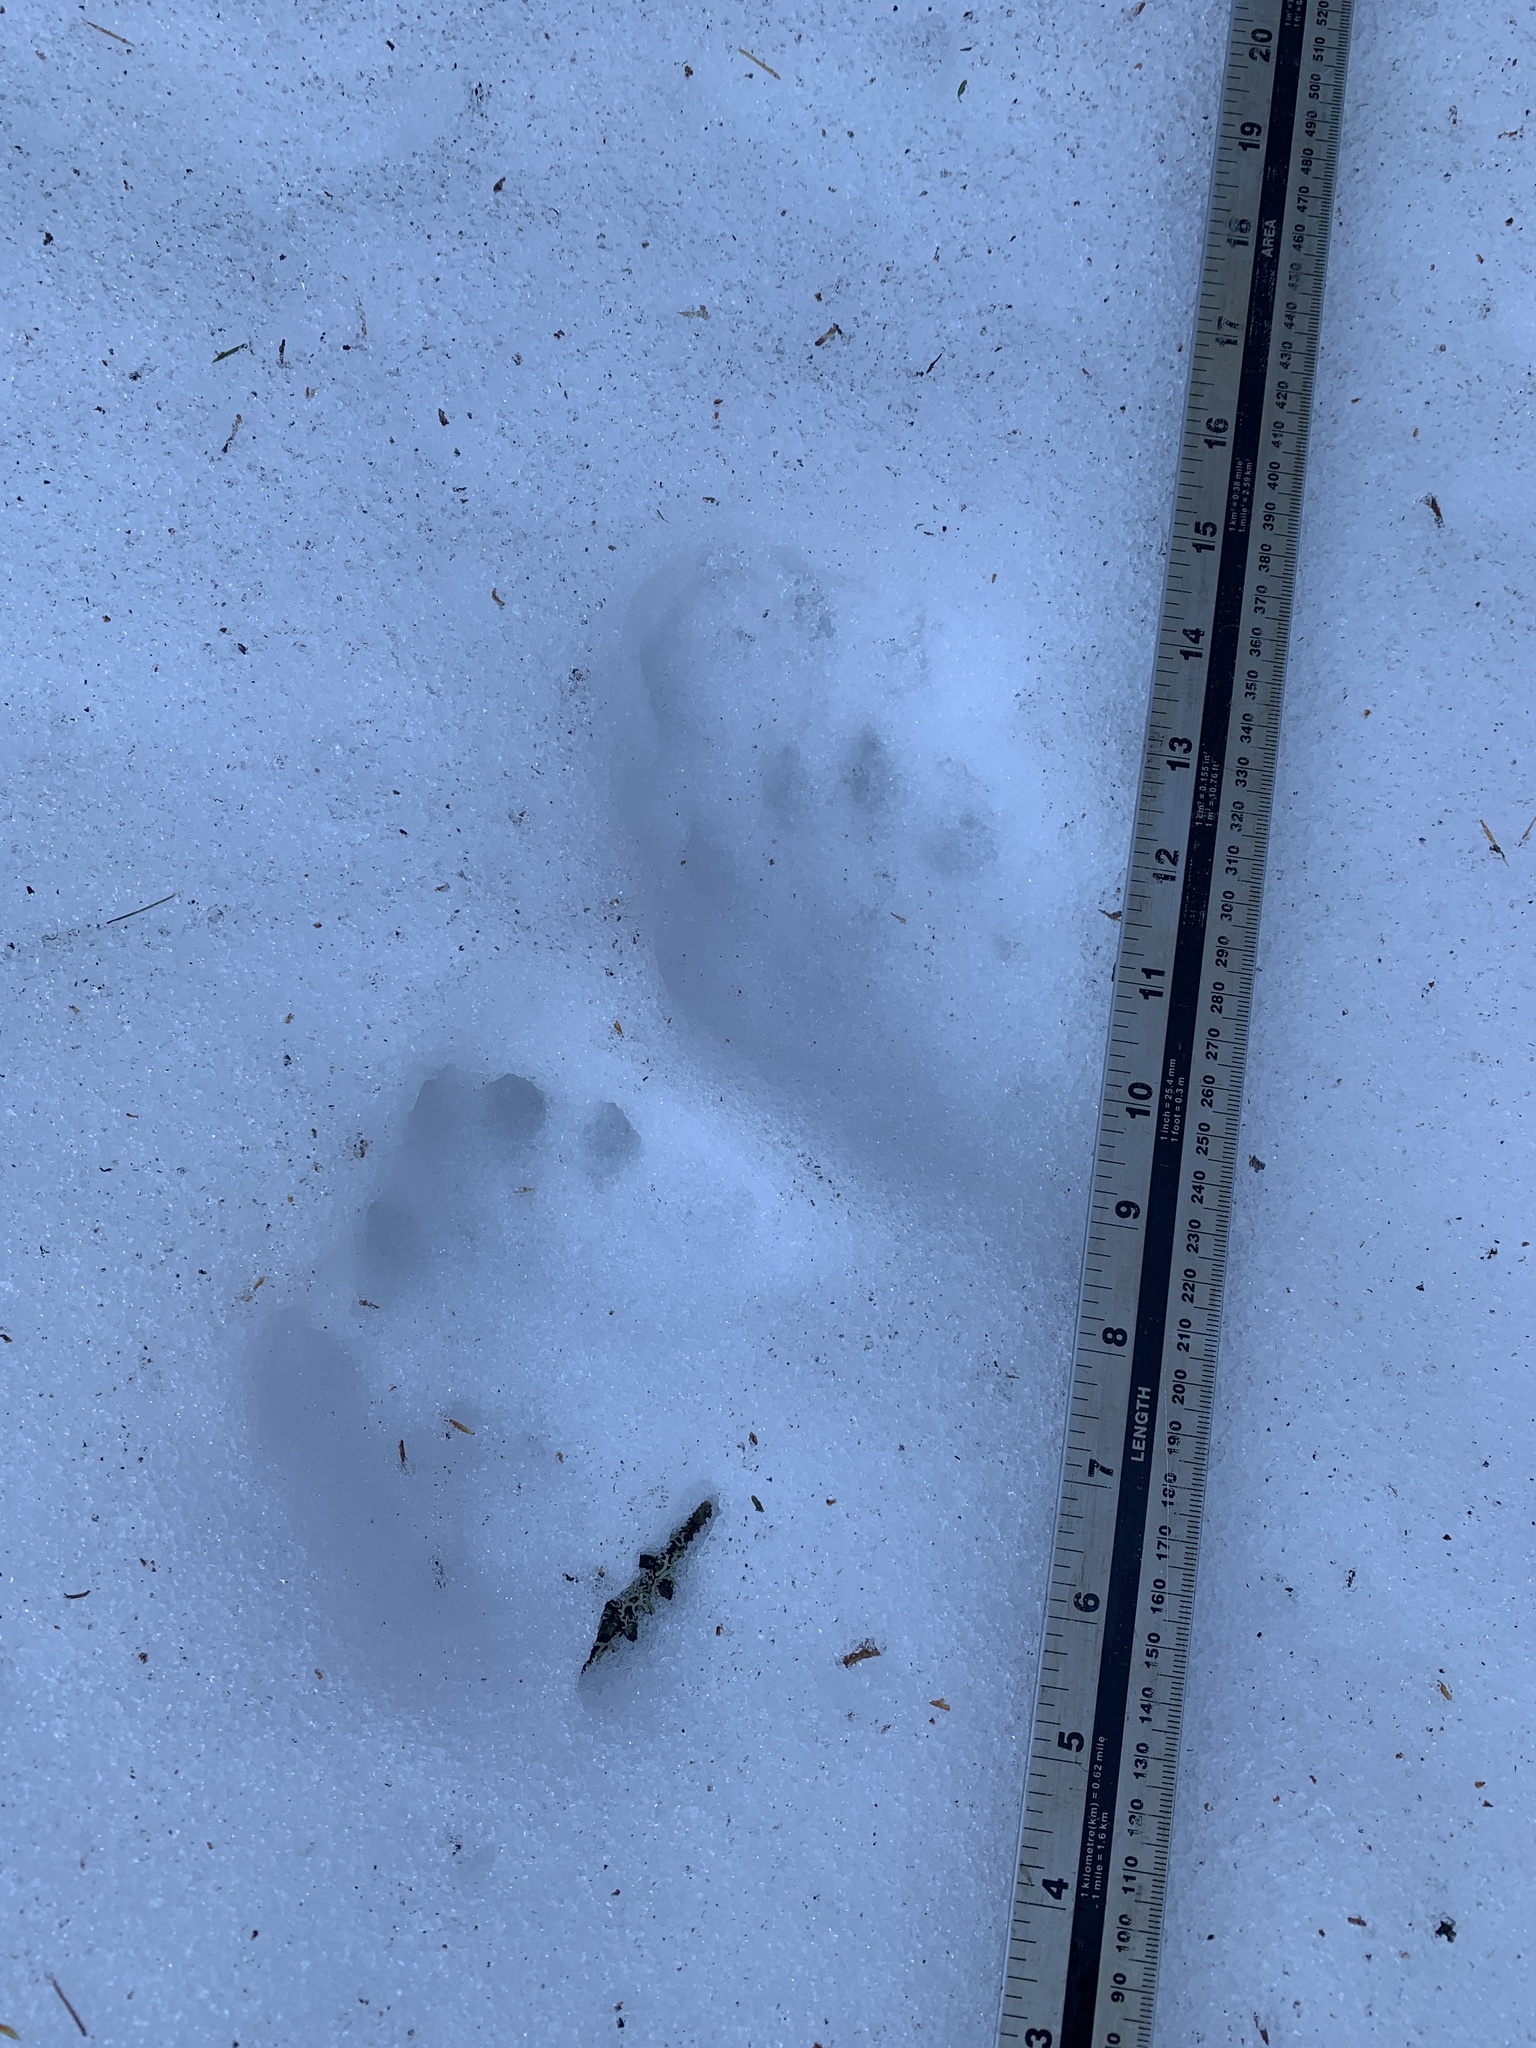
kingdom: Animalia
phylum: Chordata
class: Mammalia
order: Carnivora
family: Mustelidae
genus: Pekania
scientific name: Pekania pennanti
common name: Fisher
